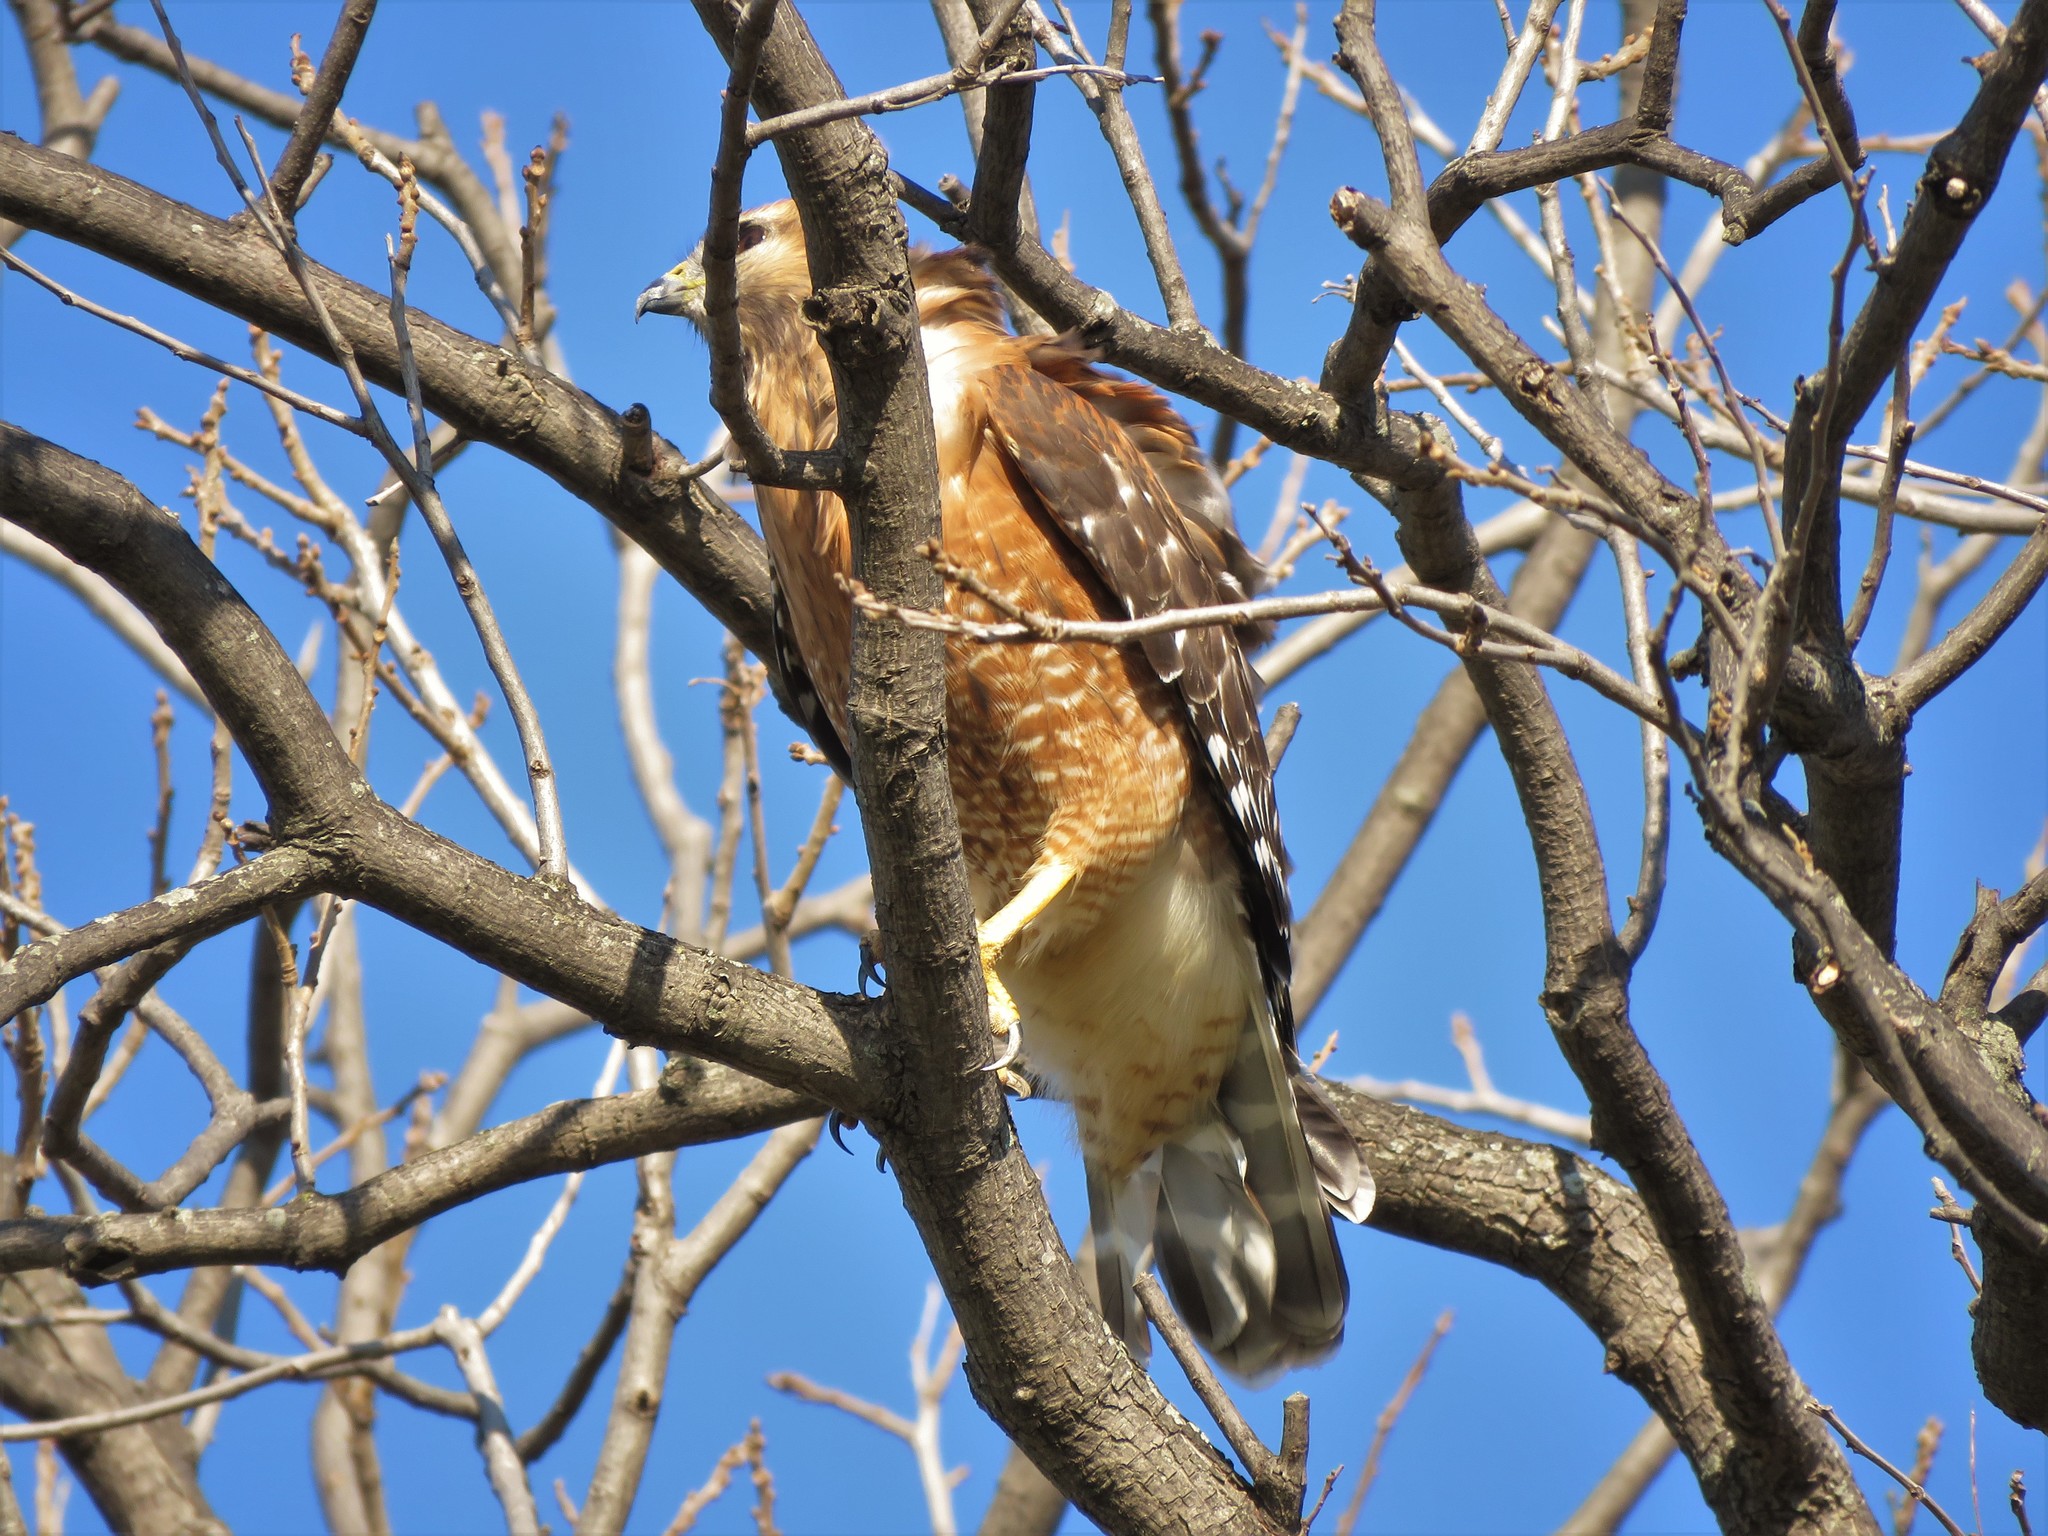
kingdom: Animalia
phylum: Chordata
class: Aves
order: Accipitriformes
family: Accipitridae
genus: Buteo
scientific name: Buteo lineatus
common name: Red-shouldered hawk
